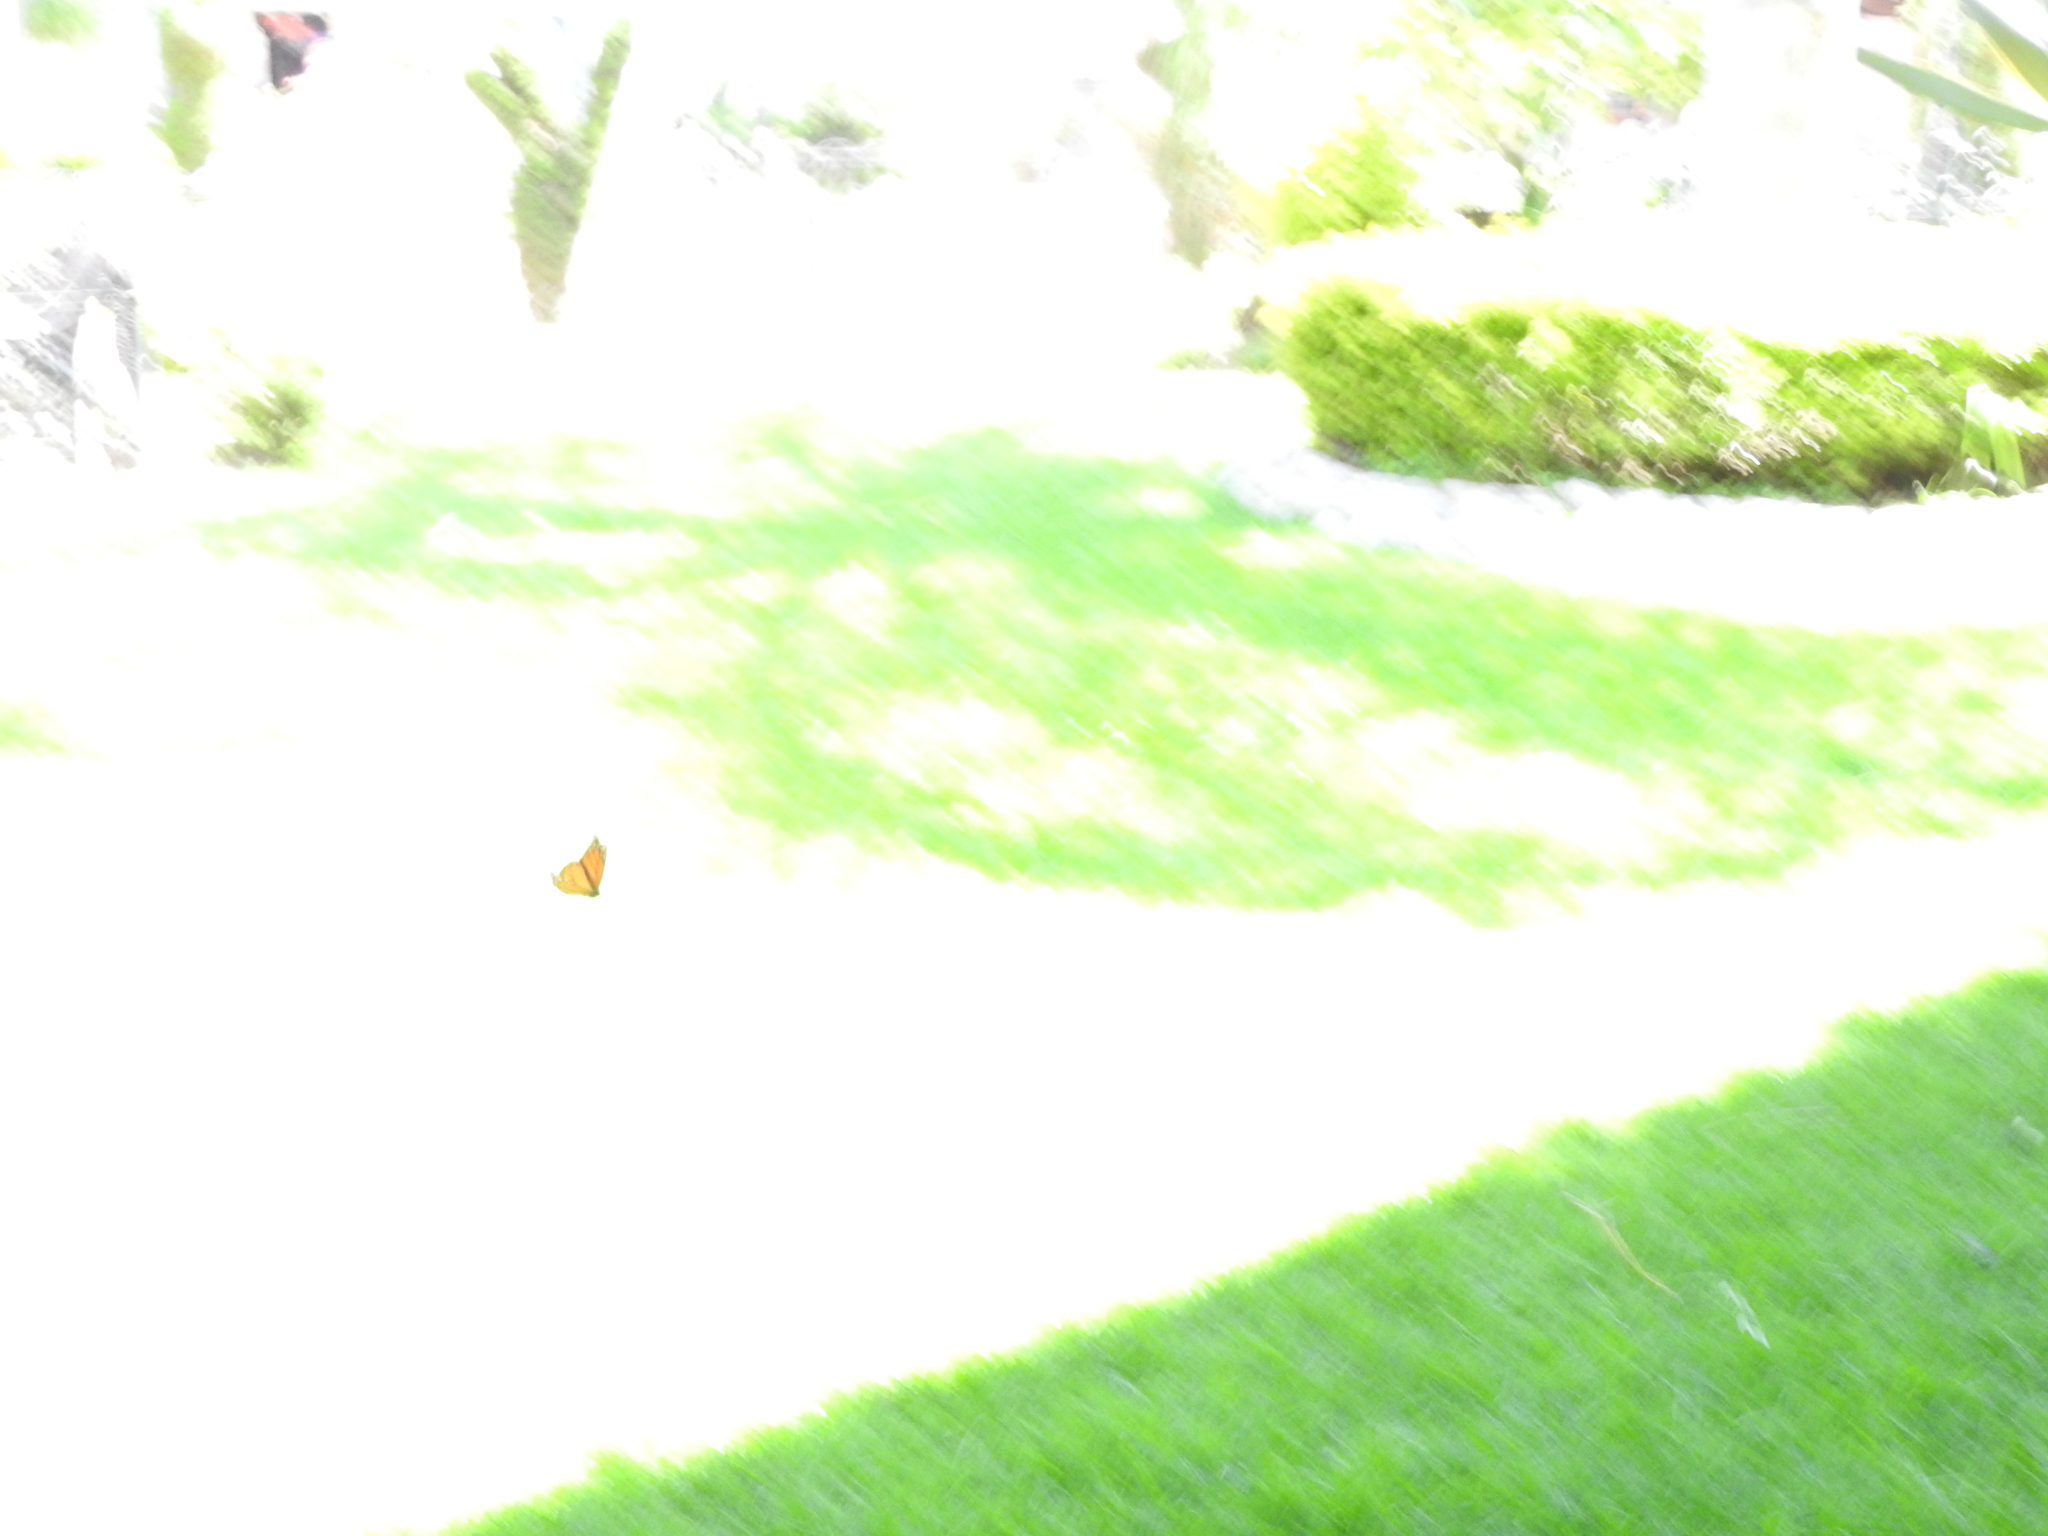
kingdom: Animalia
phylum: Arthropoda
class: Insecta
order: Lepidoptera
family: Nymphalidae
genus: Danaus
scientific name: Danaus plexippus
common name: Monarch
